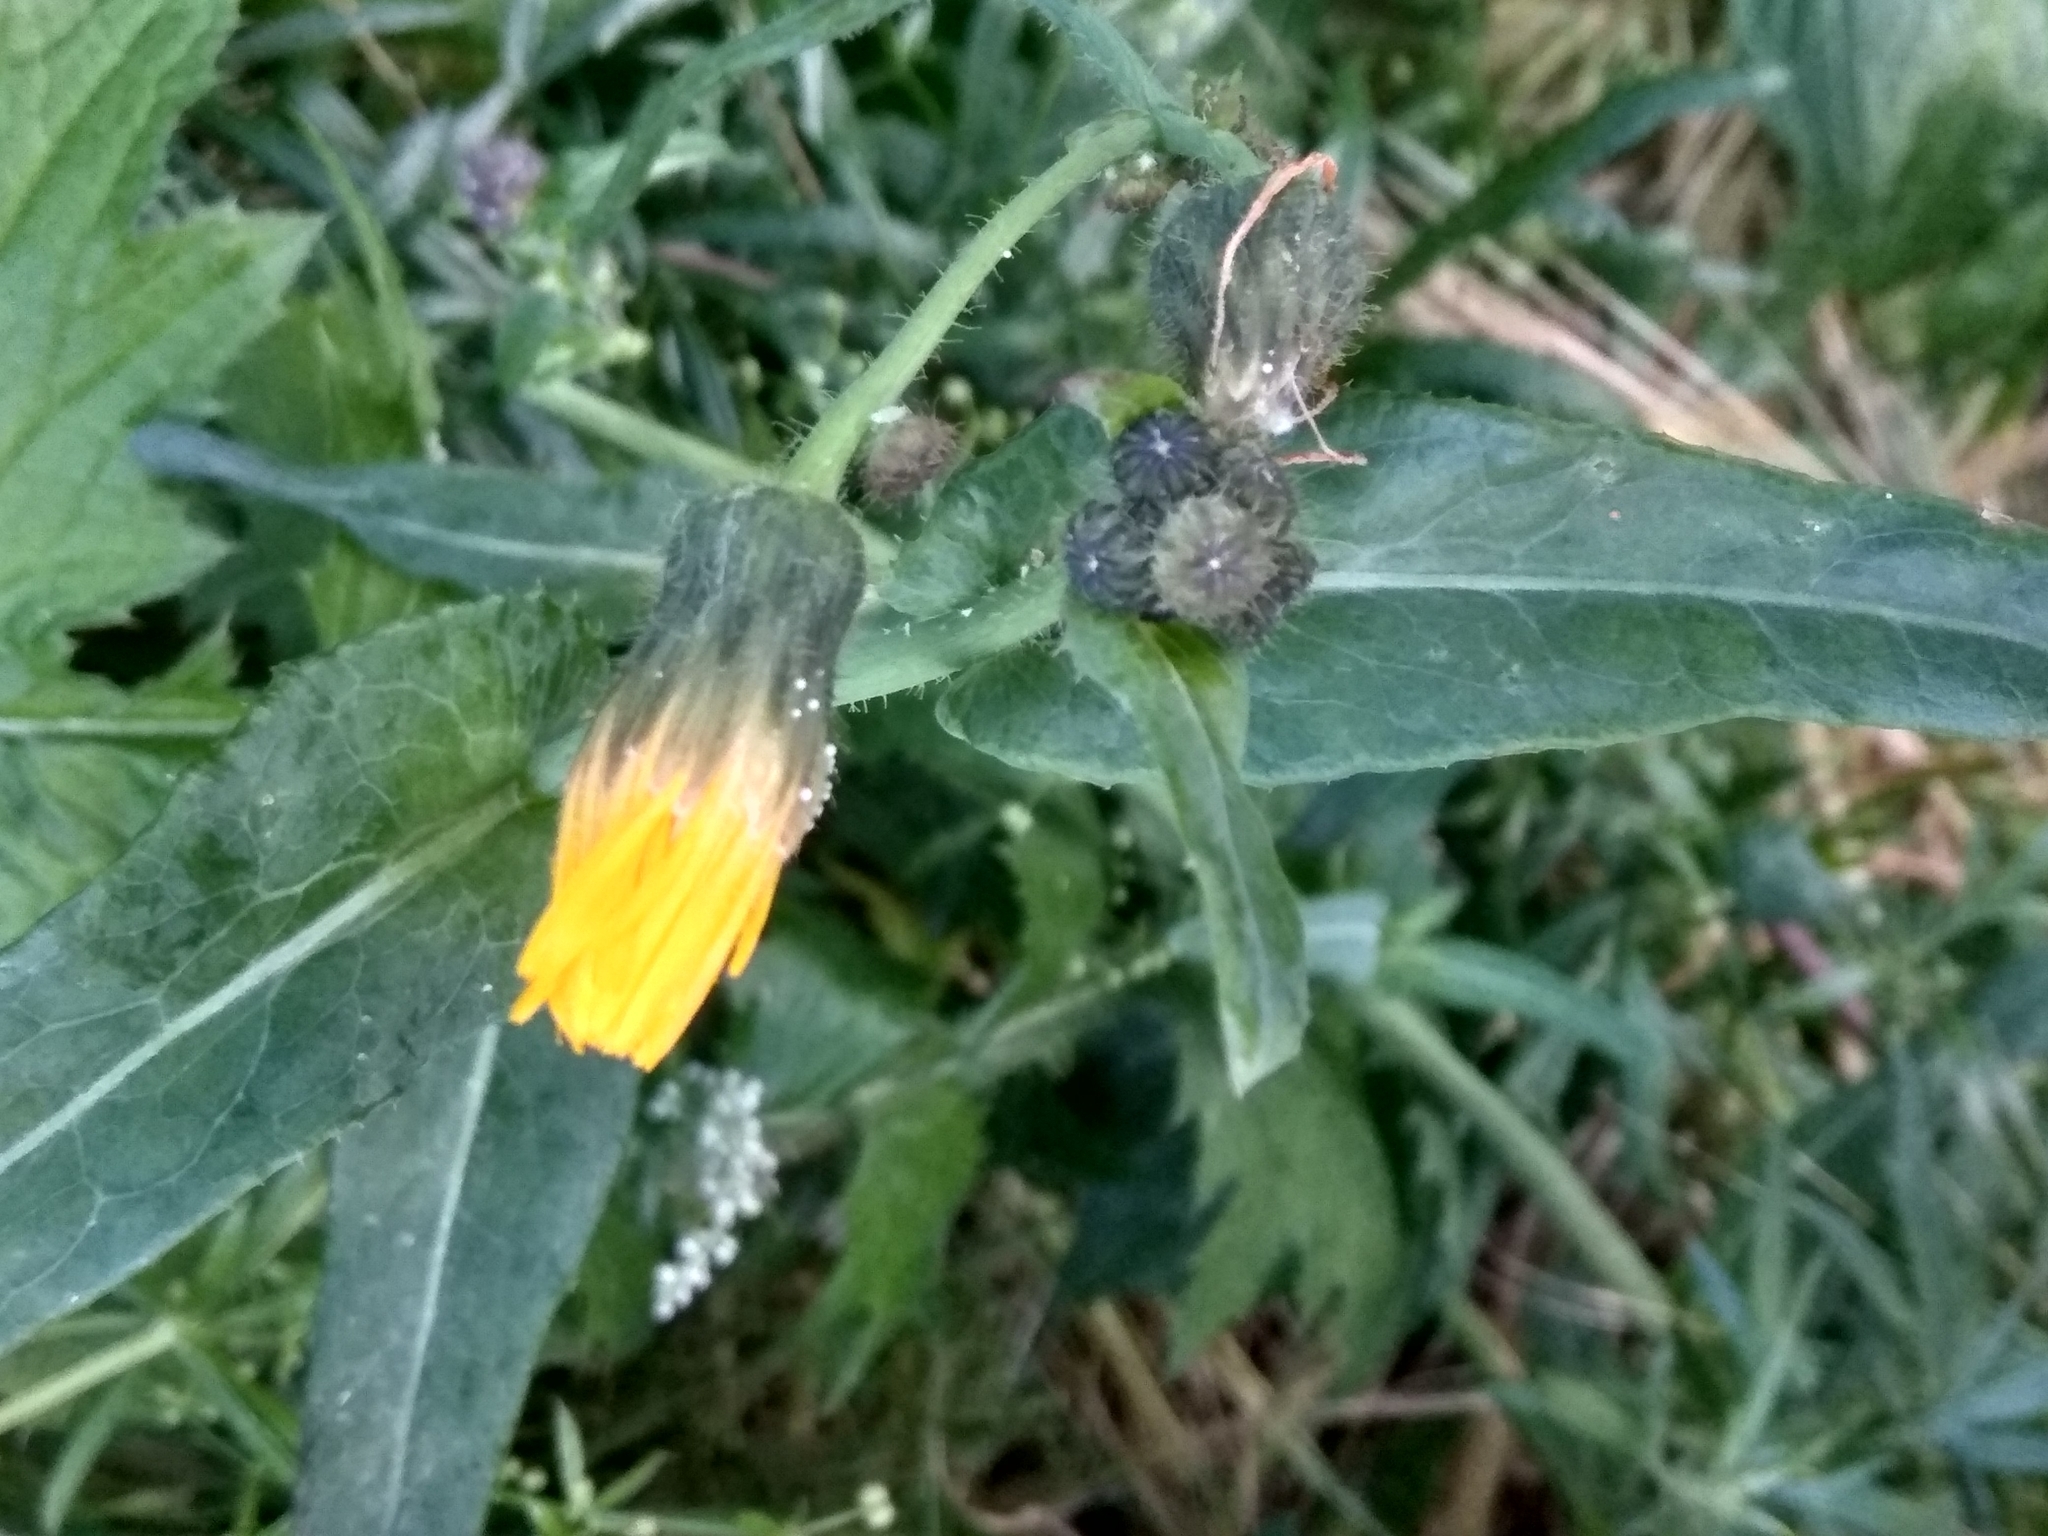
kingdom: Plantae
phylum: Tracheophyta
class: Magnoliopsida
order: Asterales
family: Asteraceae
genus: Sonchus
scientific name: Sonchus arvensis
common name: Perennial sow-thistle
